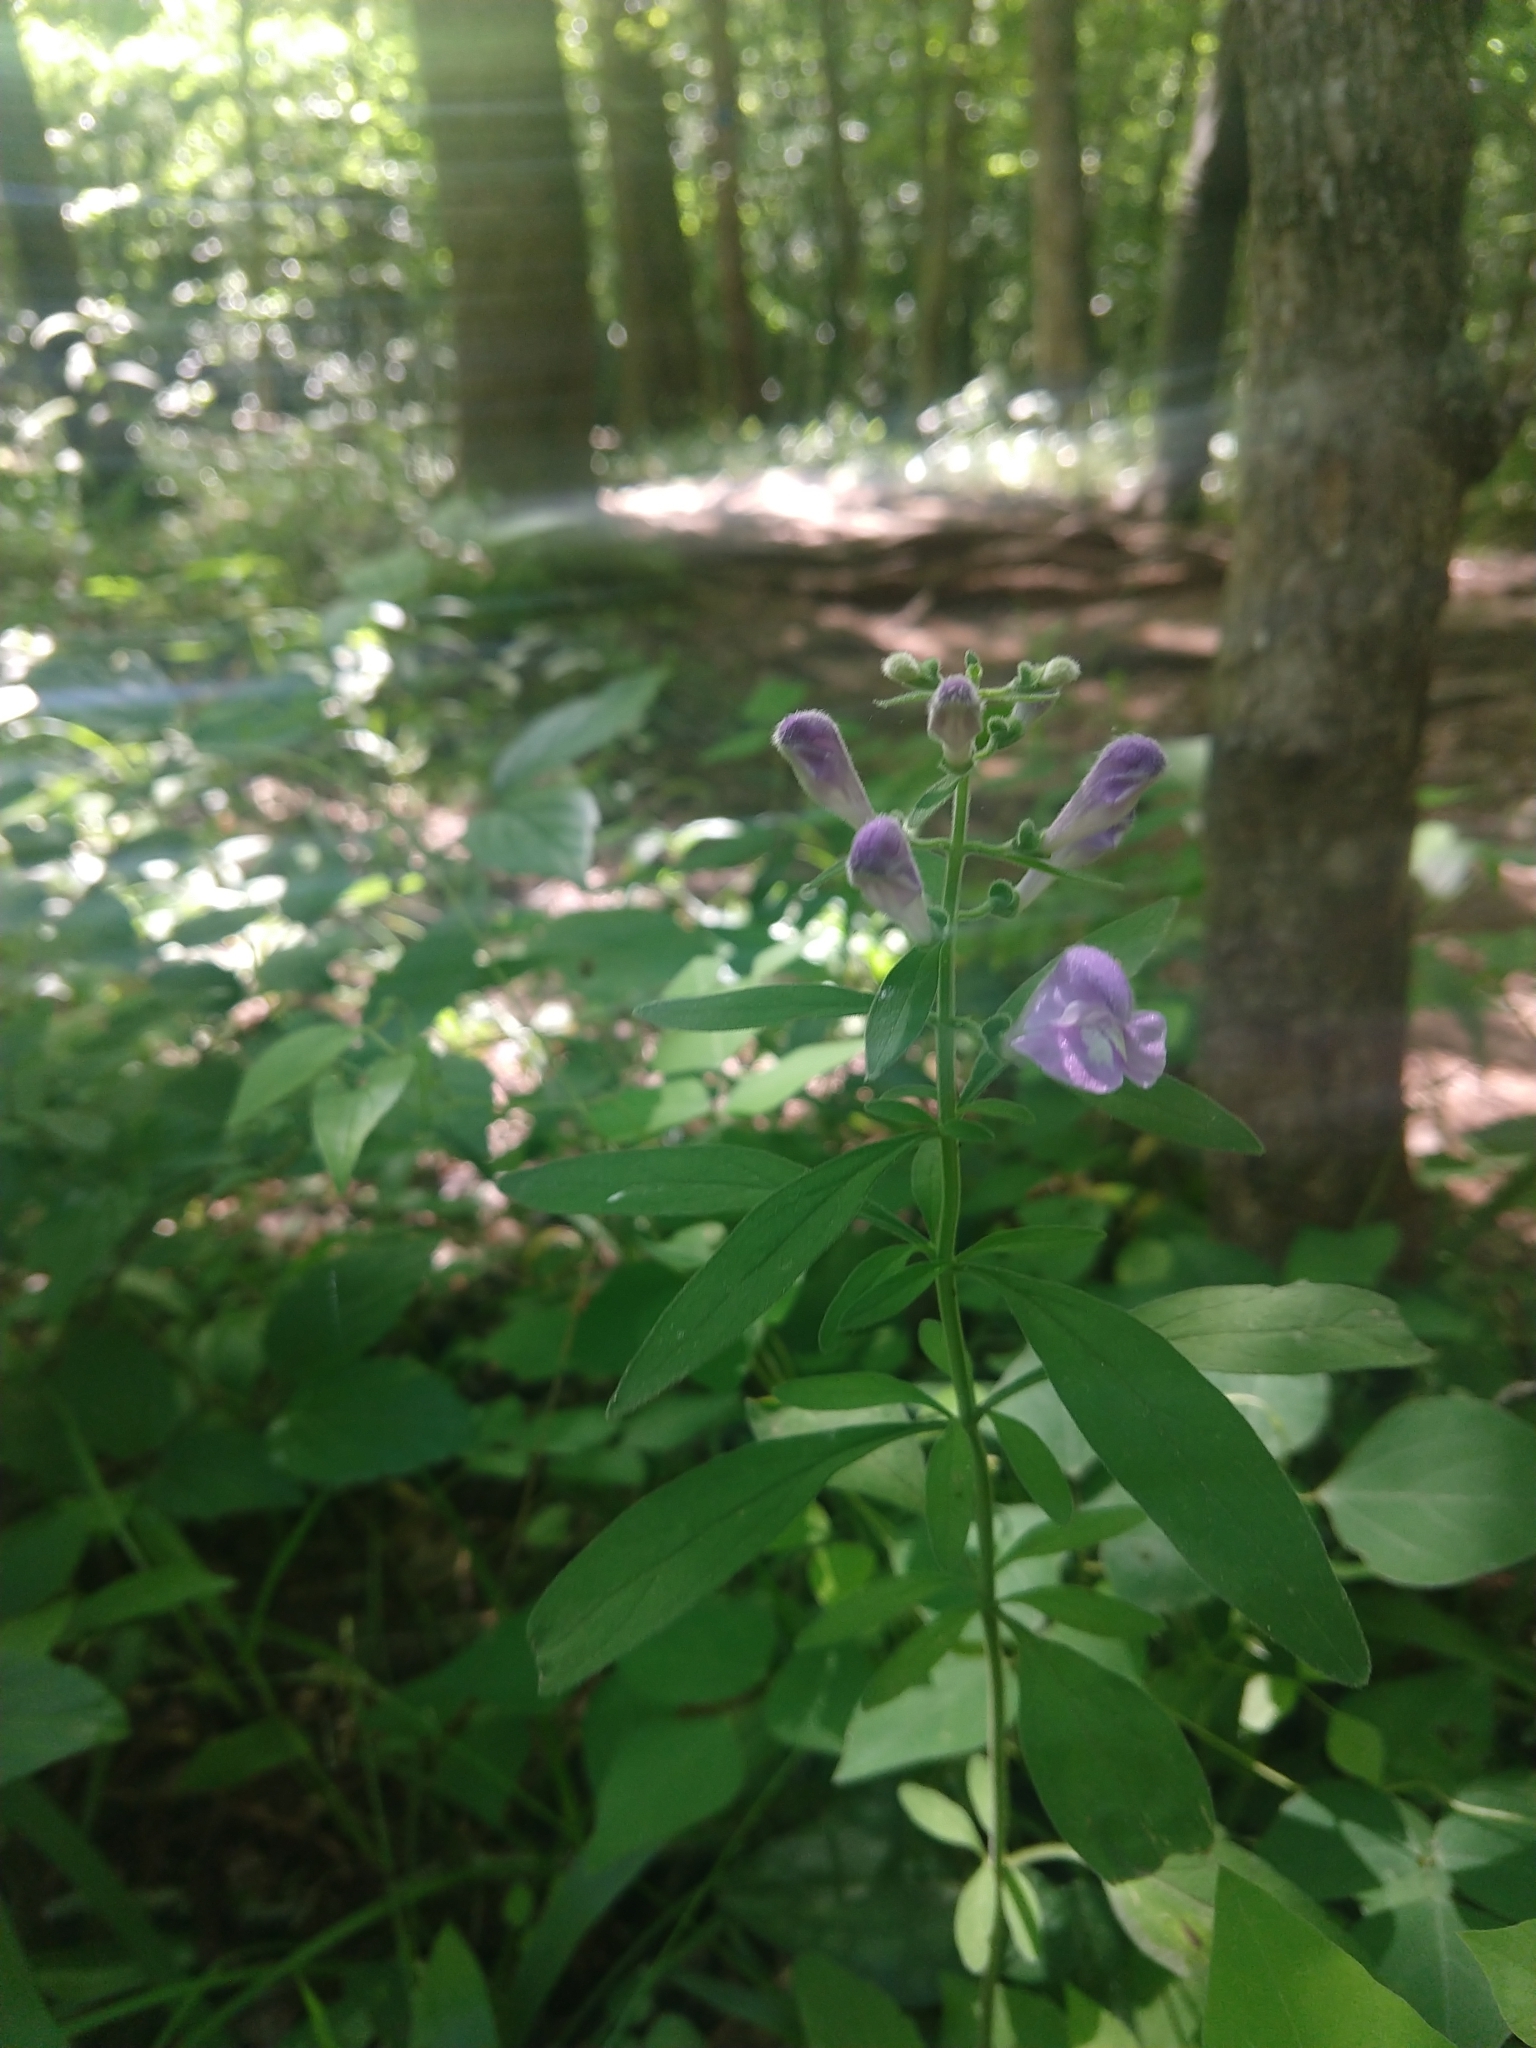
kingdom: Plantae
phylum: Tracheophyta
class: Magnoliopsida
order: Lamiales
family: Lamiaceae
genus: Scutellaria
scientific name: Scutellaria integrifolia
